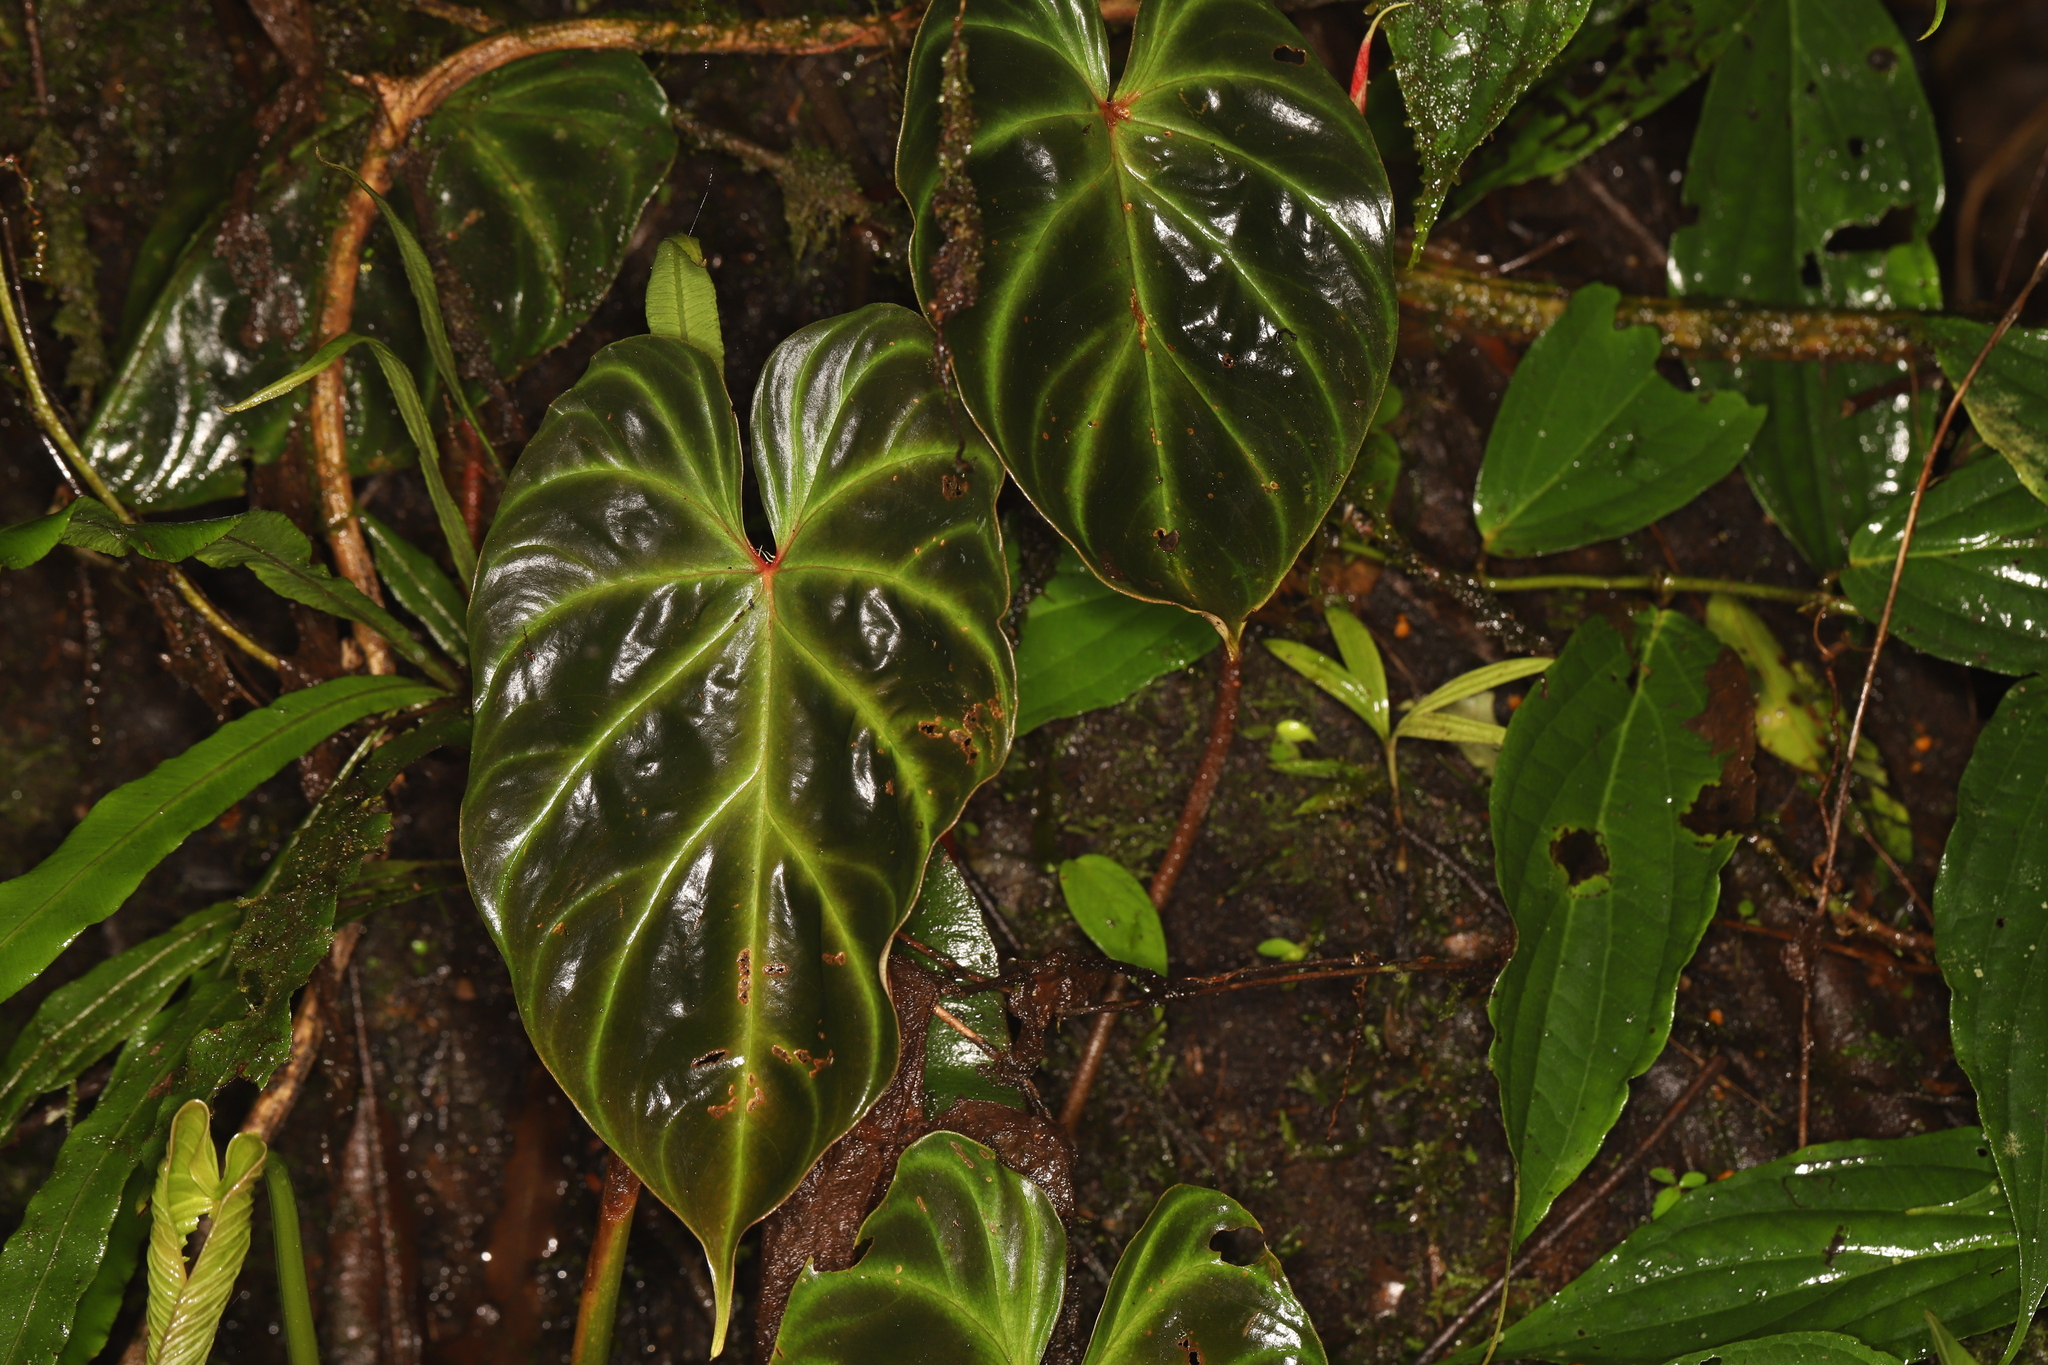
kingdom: Plantae
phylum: Tracheophyta
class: Liliopsida
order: Alismatales
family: Araceae
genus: Philodendron
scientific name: Philodendron verrucosum
